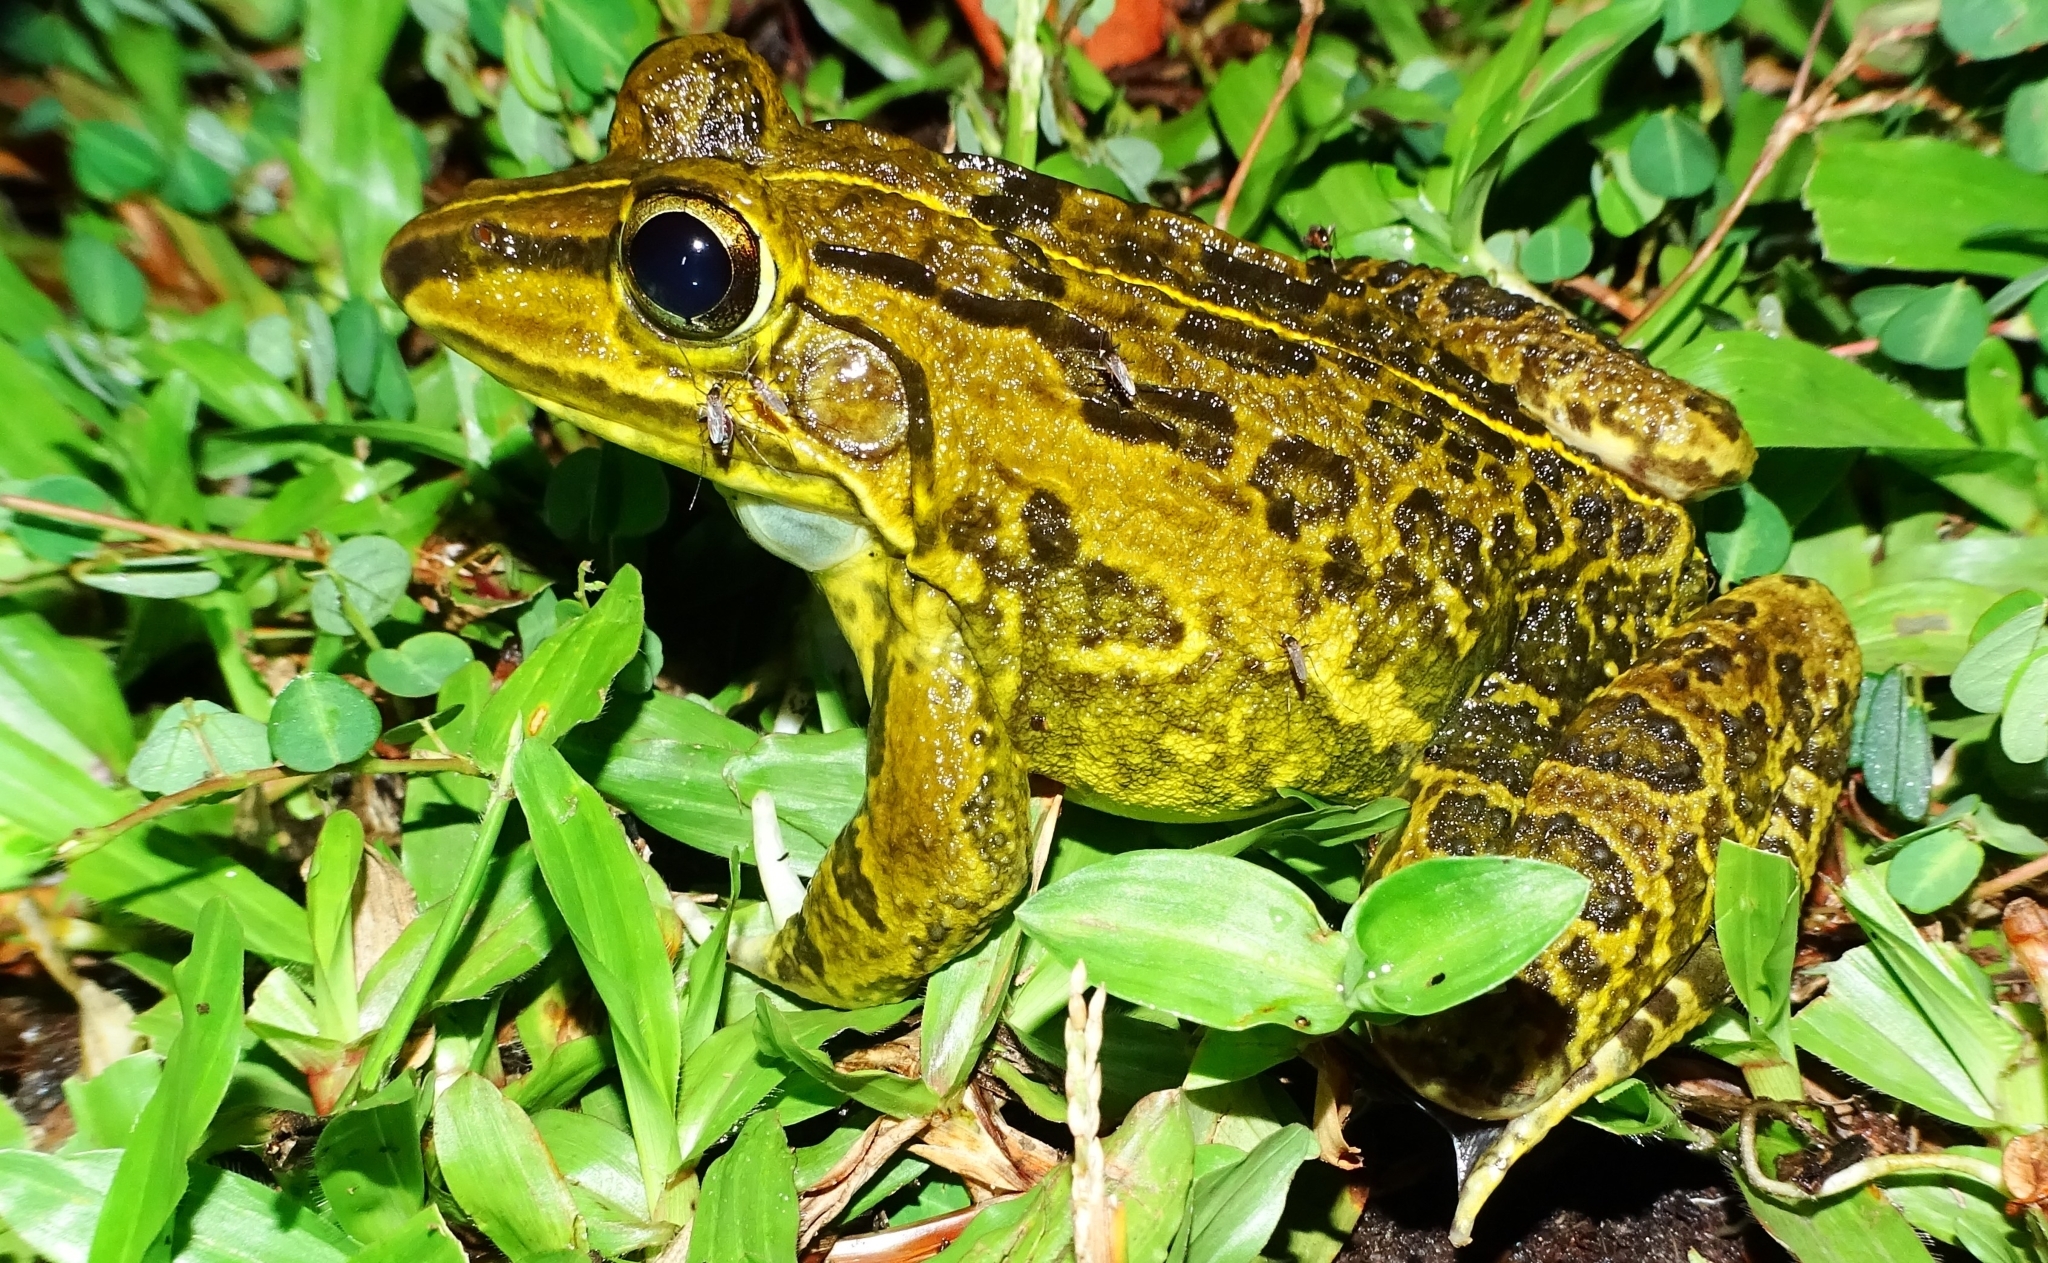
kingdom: Animalia
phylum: Chordata
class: Amphibia
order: Anura
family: Dicroglossidae
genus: Hoplobatrachus
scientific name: Hoplobatrachus tigerinus
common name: Indian bullfrog
